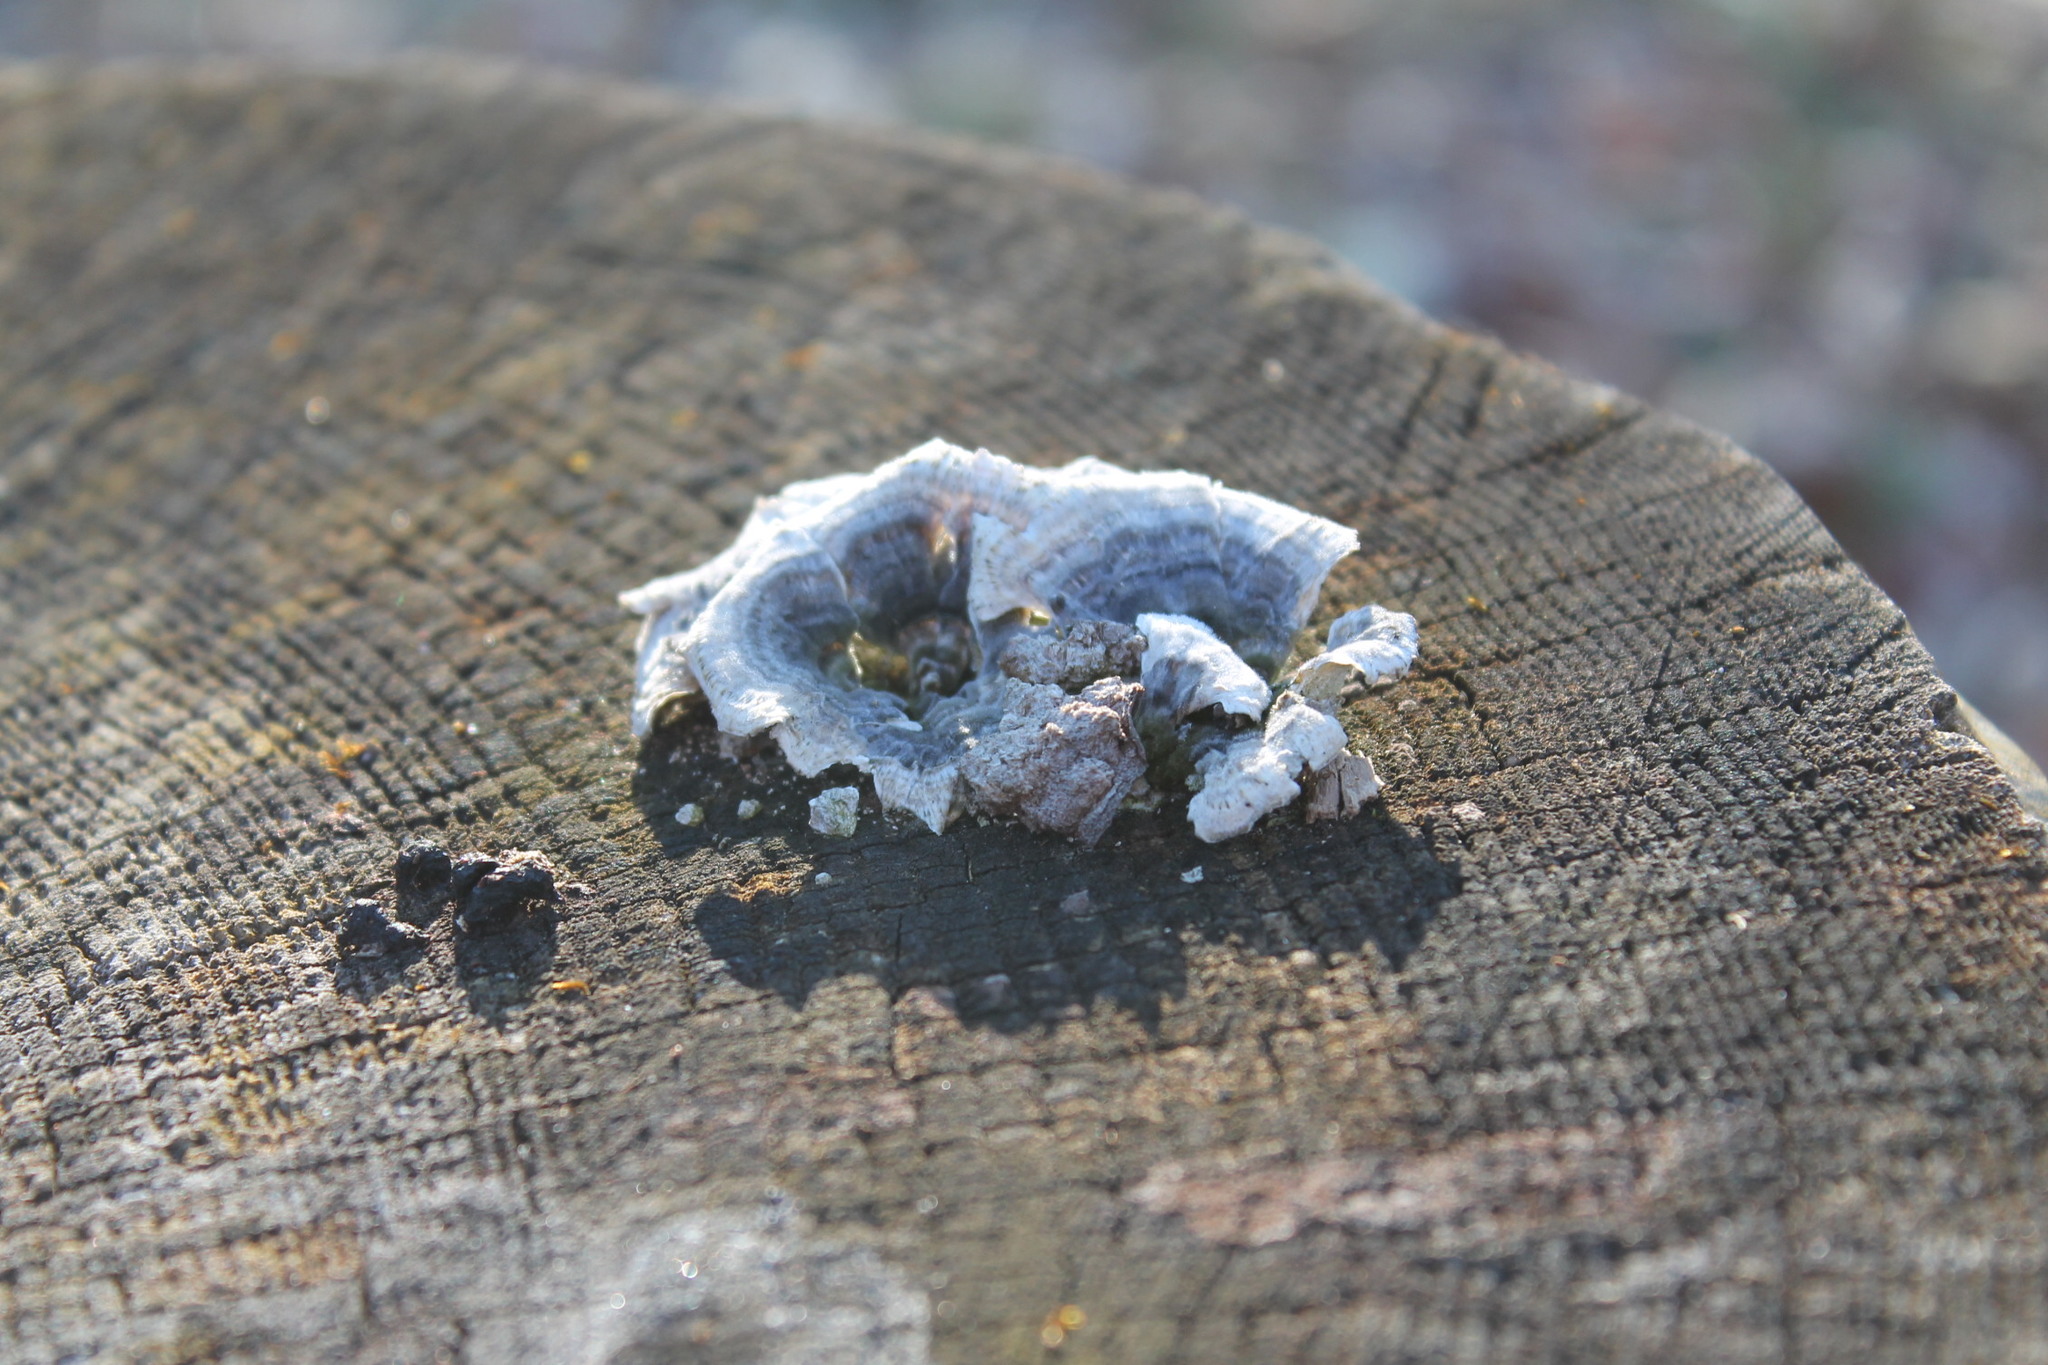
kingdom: Fungi
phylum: Basidiomycota
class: Agaricomycetes
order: Polyporales
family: Polyporaceae
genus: Trametes
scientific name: Trametes versicolor
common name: Turkeytail
